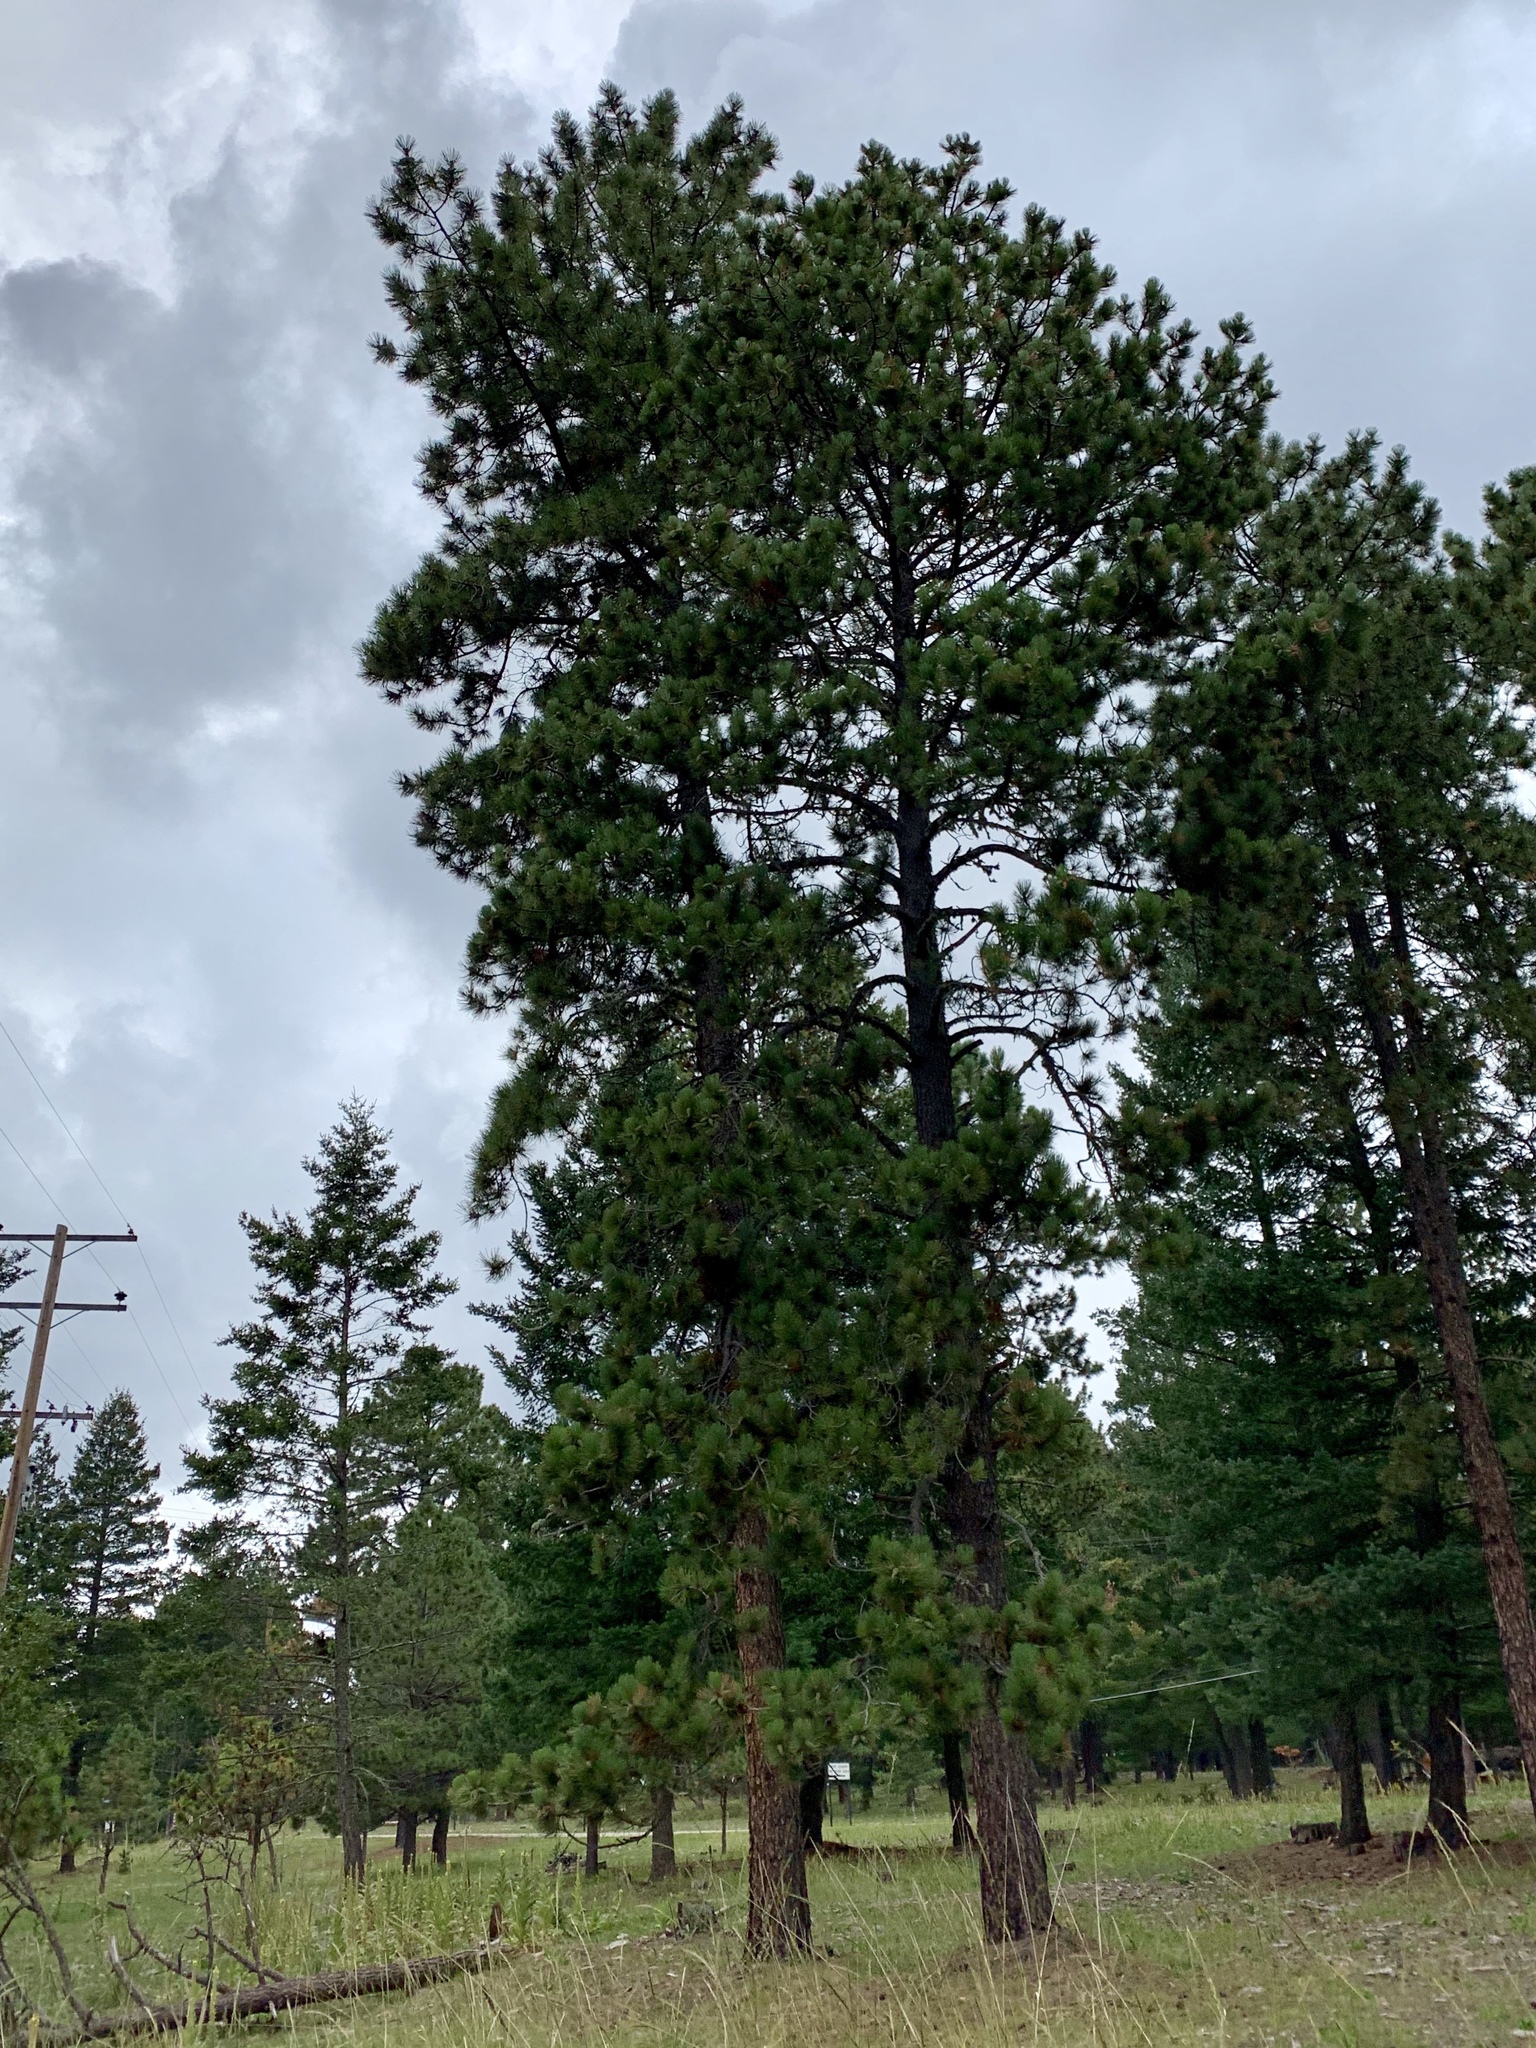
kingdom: Plantae
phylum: Tracheophyta
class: Pinopsida
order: Pinales
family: Pinaceae
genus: Pinus
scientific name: Pinus ponderosa
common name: Western yellow-pine
